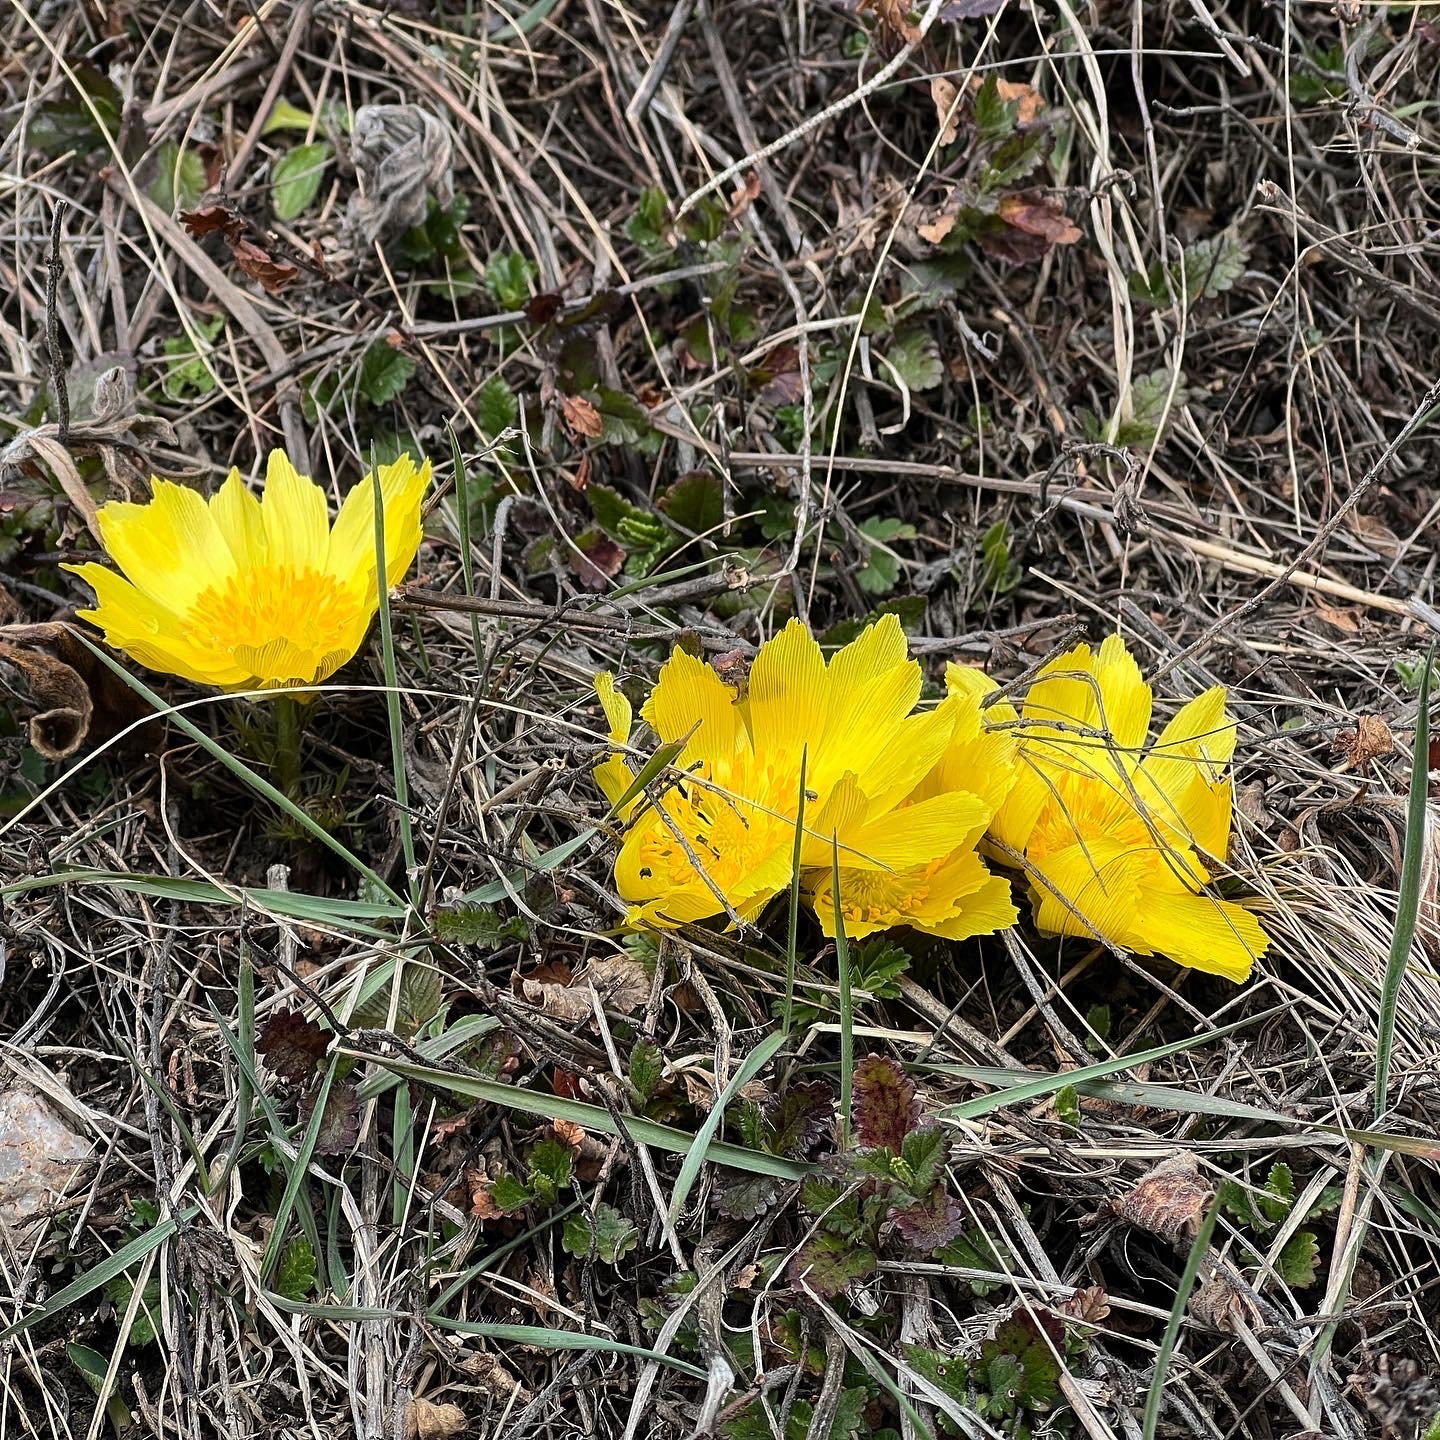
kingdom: Plantae
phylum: Tracheophyta
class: Magnoliopsida
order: Ranunculales
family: Ranunculaceae
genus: Adonis
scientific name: Adonis vernalis
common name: Yellow pheasants-eye
